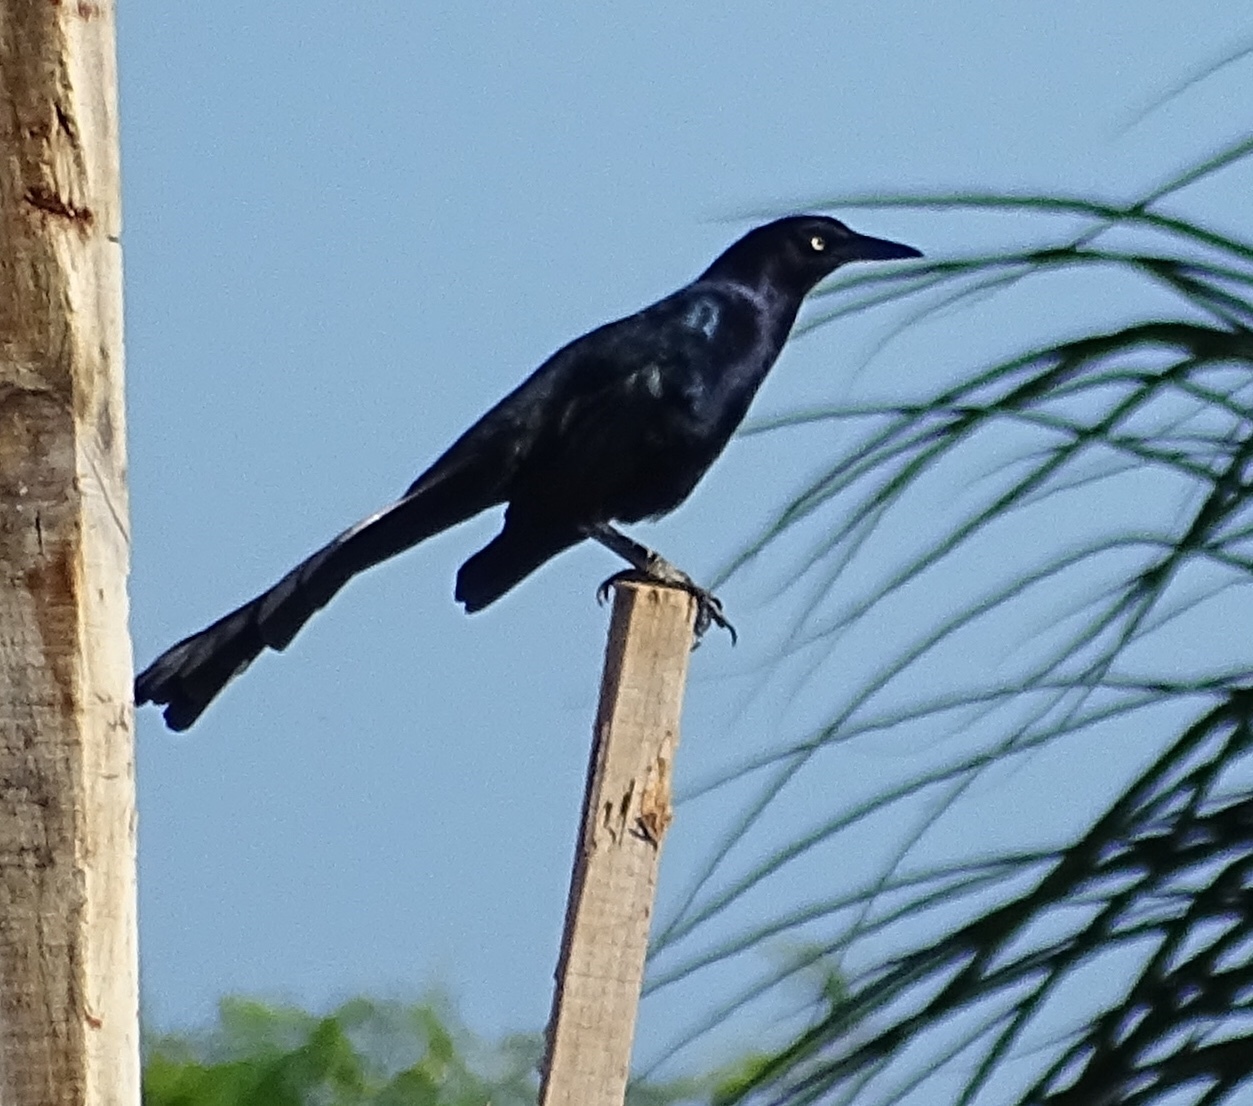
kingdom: Animalia
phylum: Chordata
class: Aves
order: Passeriformes
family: Icteridae
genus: Quiscalus
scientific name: Quiscalus mexicanus
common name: Great-tailed grackle
